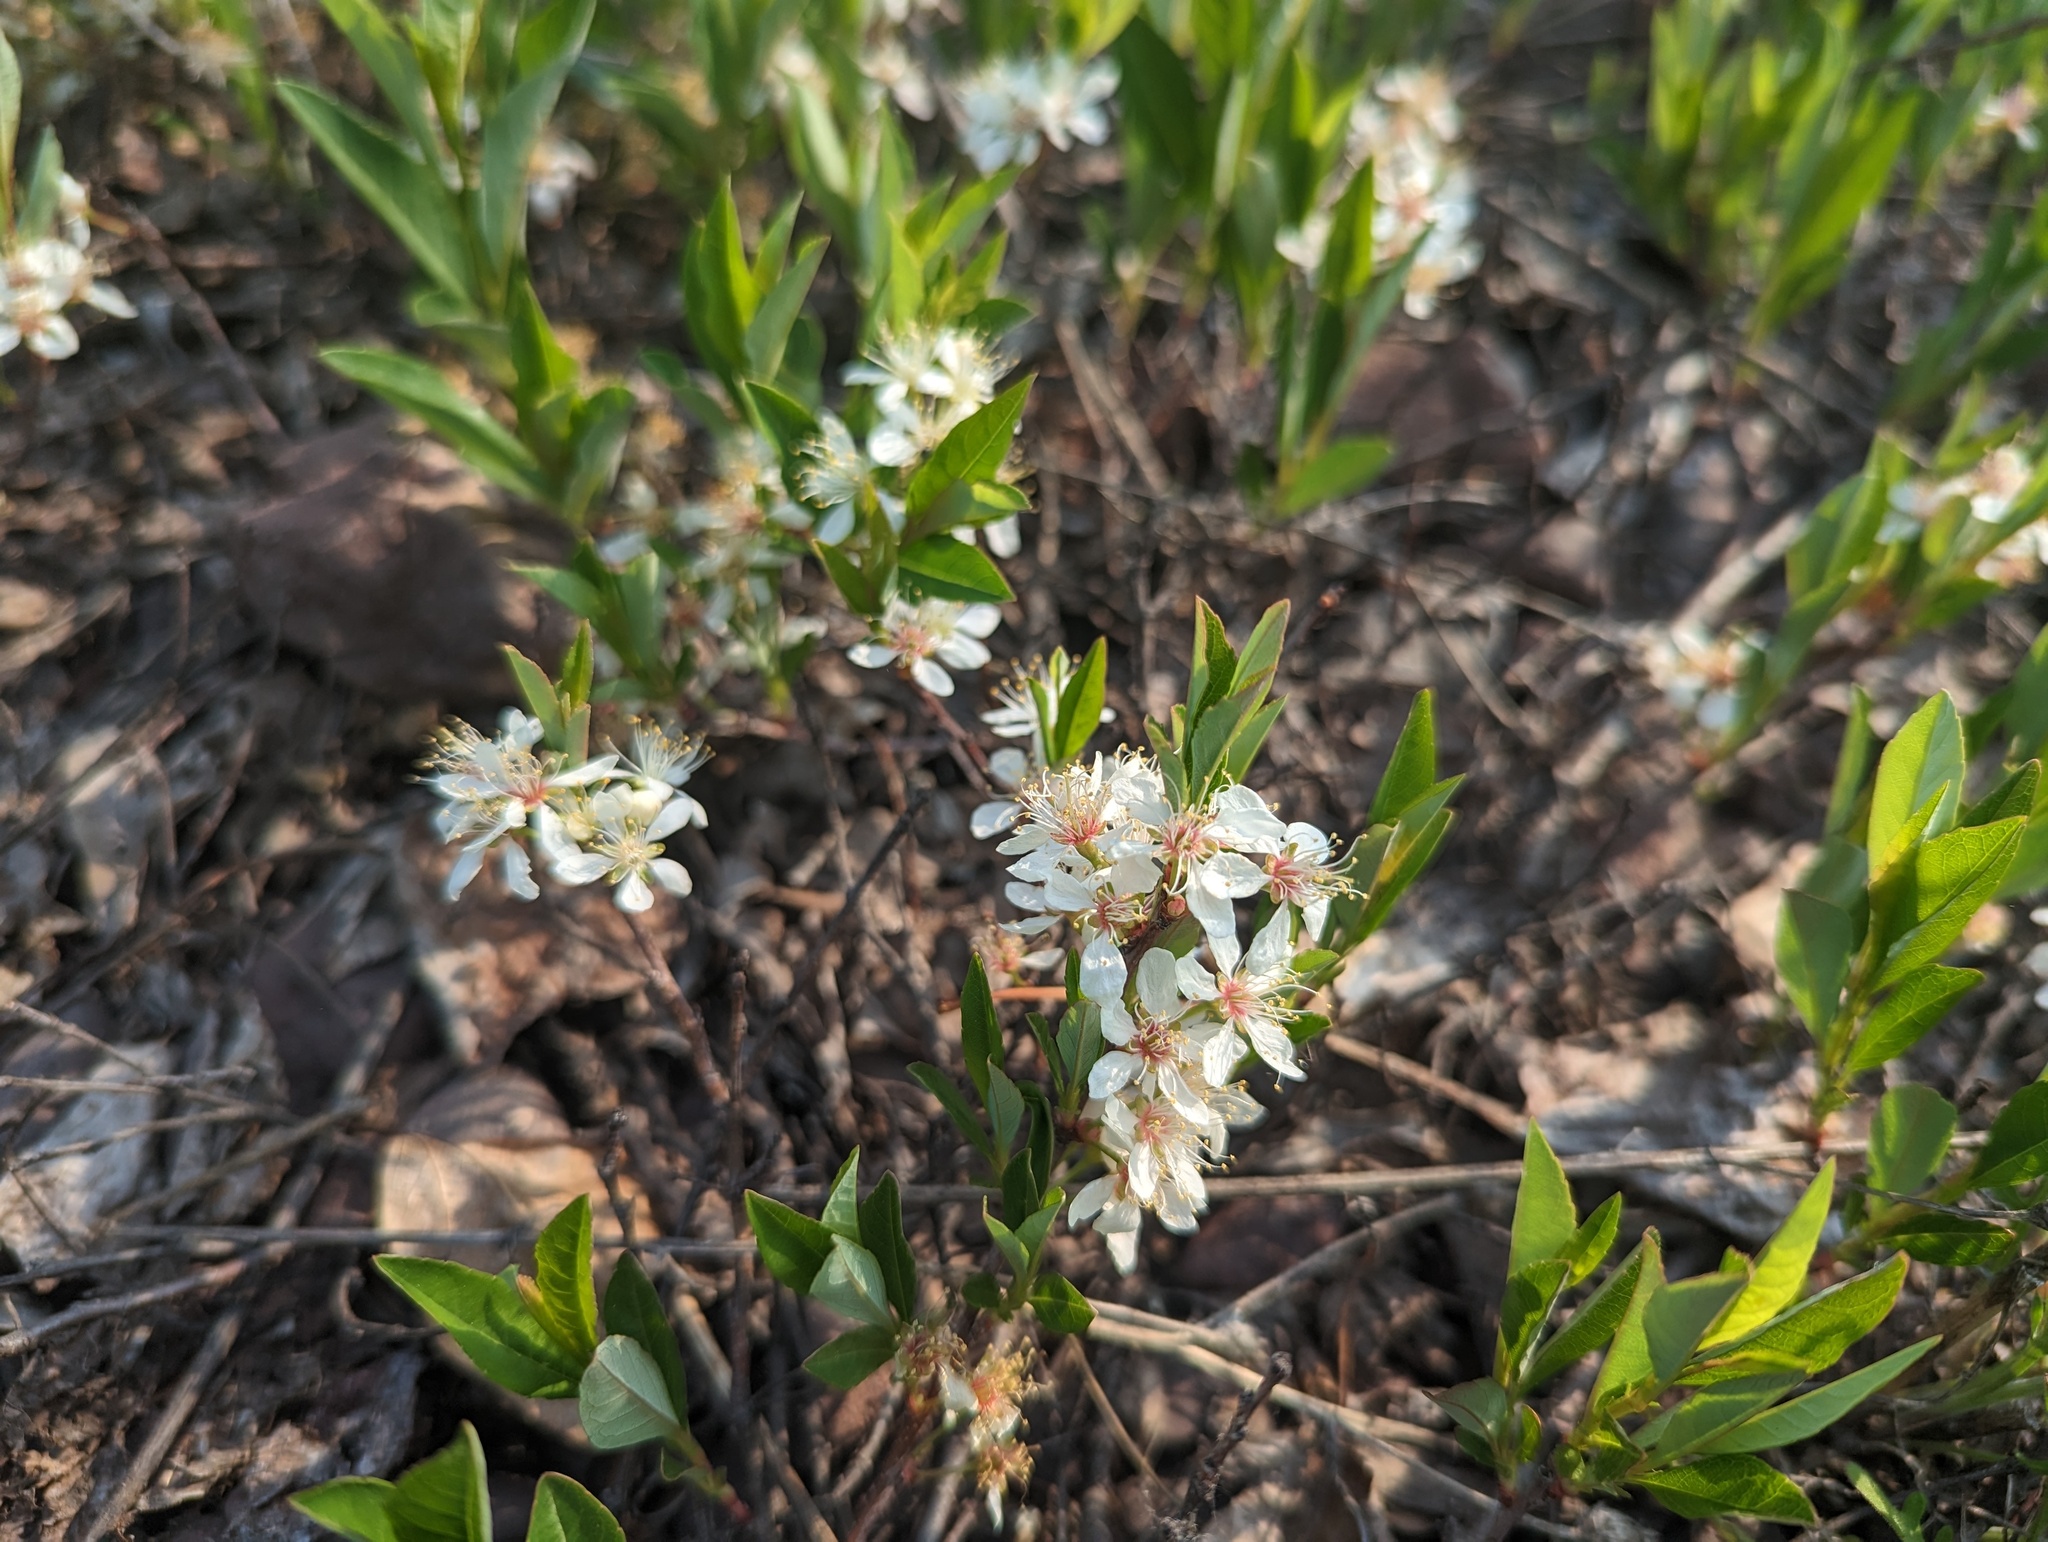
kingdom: Plantae
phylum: Tracheophyta
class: Magnoliopsida
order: Rosales
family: Rosaceae
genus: Prunus
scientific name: Prunus pumila
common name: Dwarf cherry
